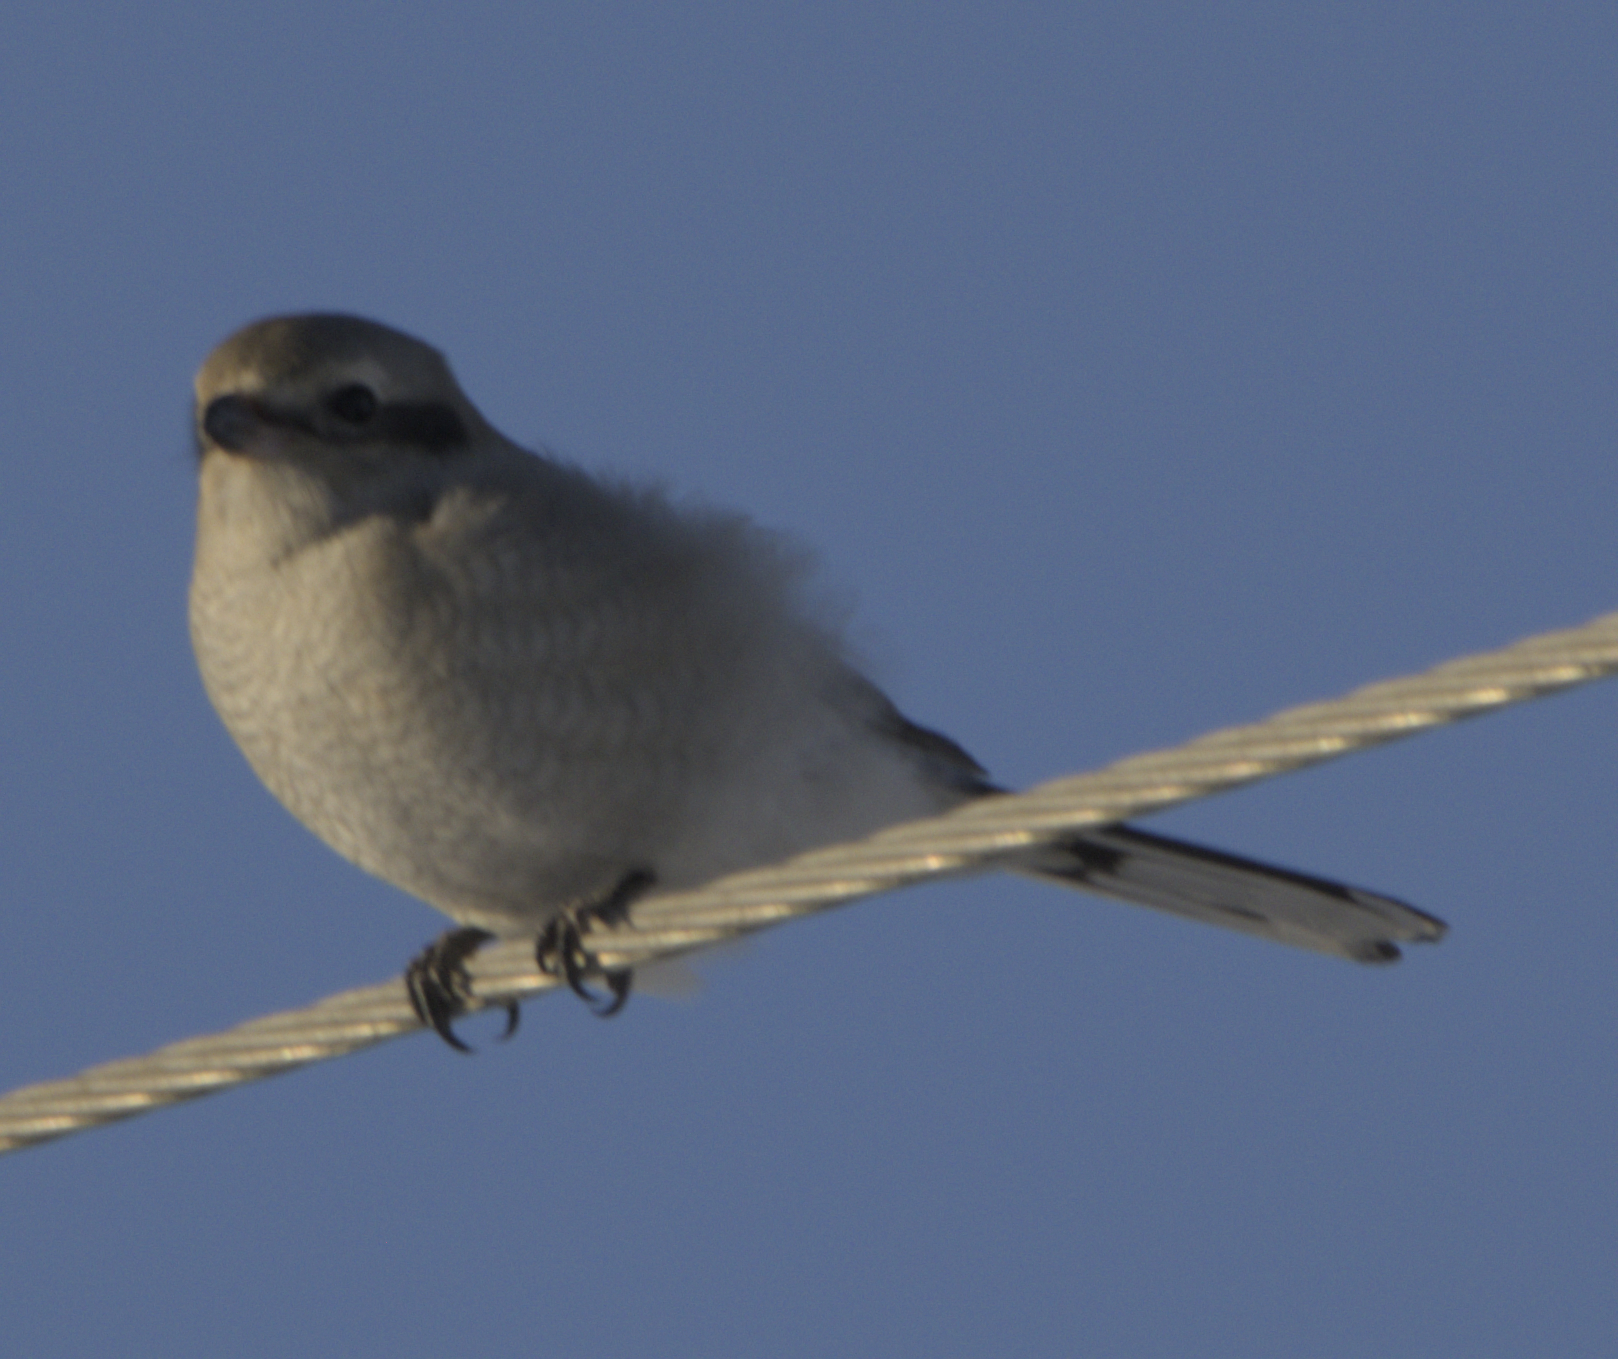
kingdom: Animalia
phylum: Chordata
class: Aves
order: Passeriformes
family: Laniidae
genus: Lanius
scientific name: Lanius borealis
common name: Northern shrike
